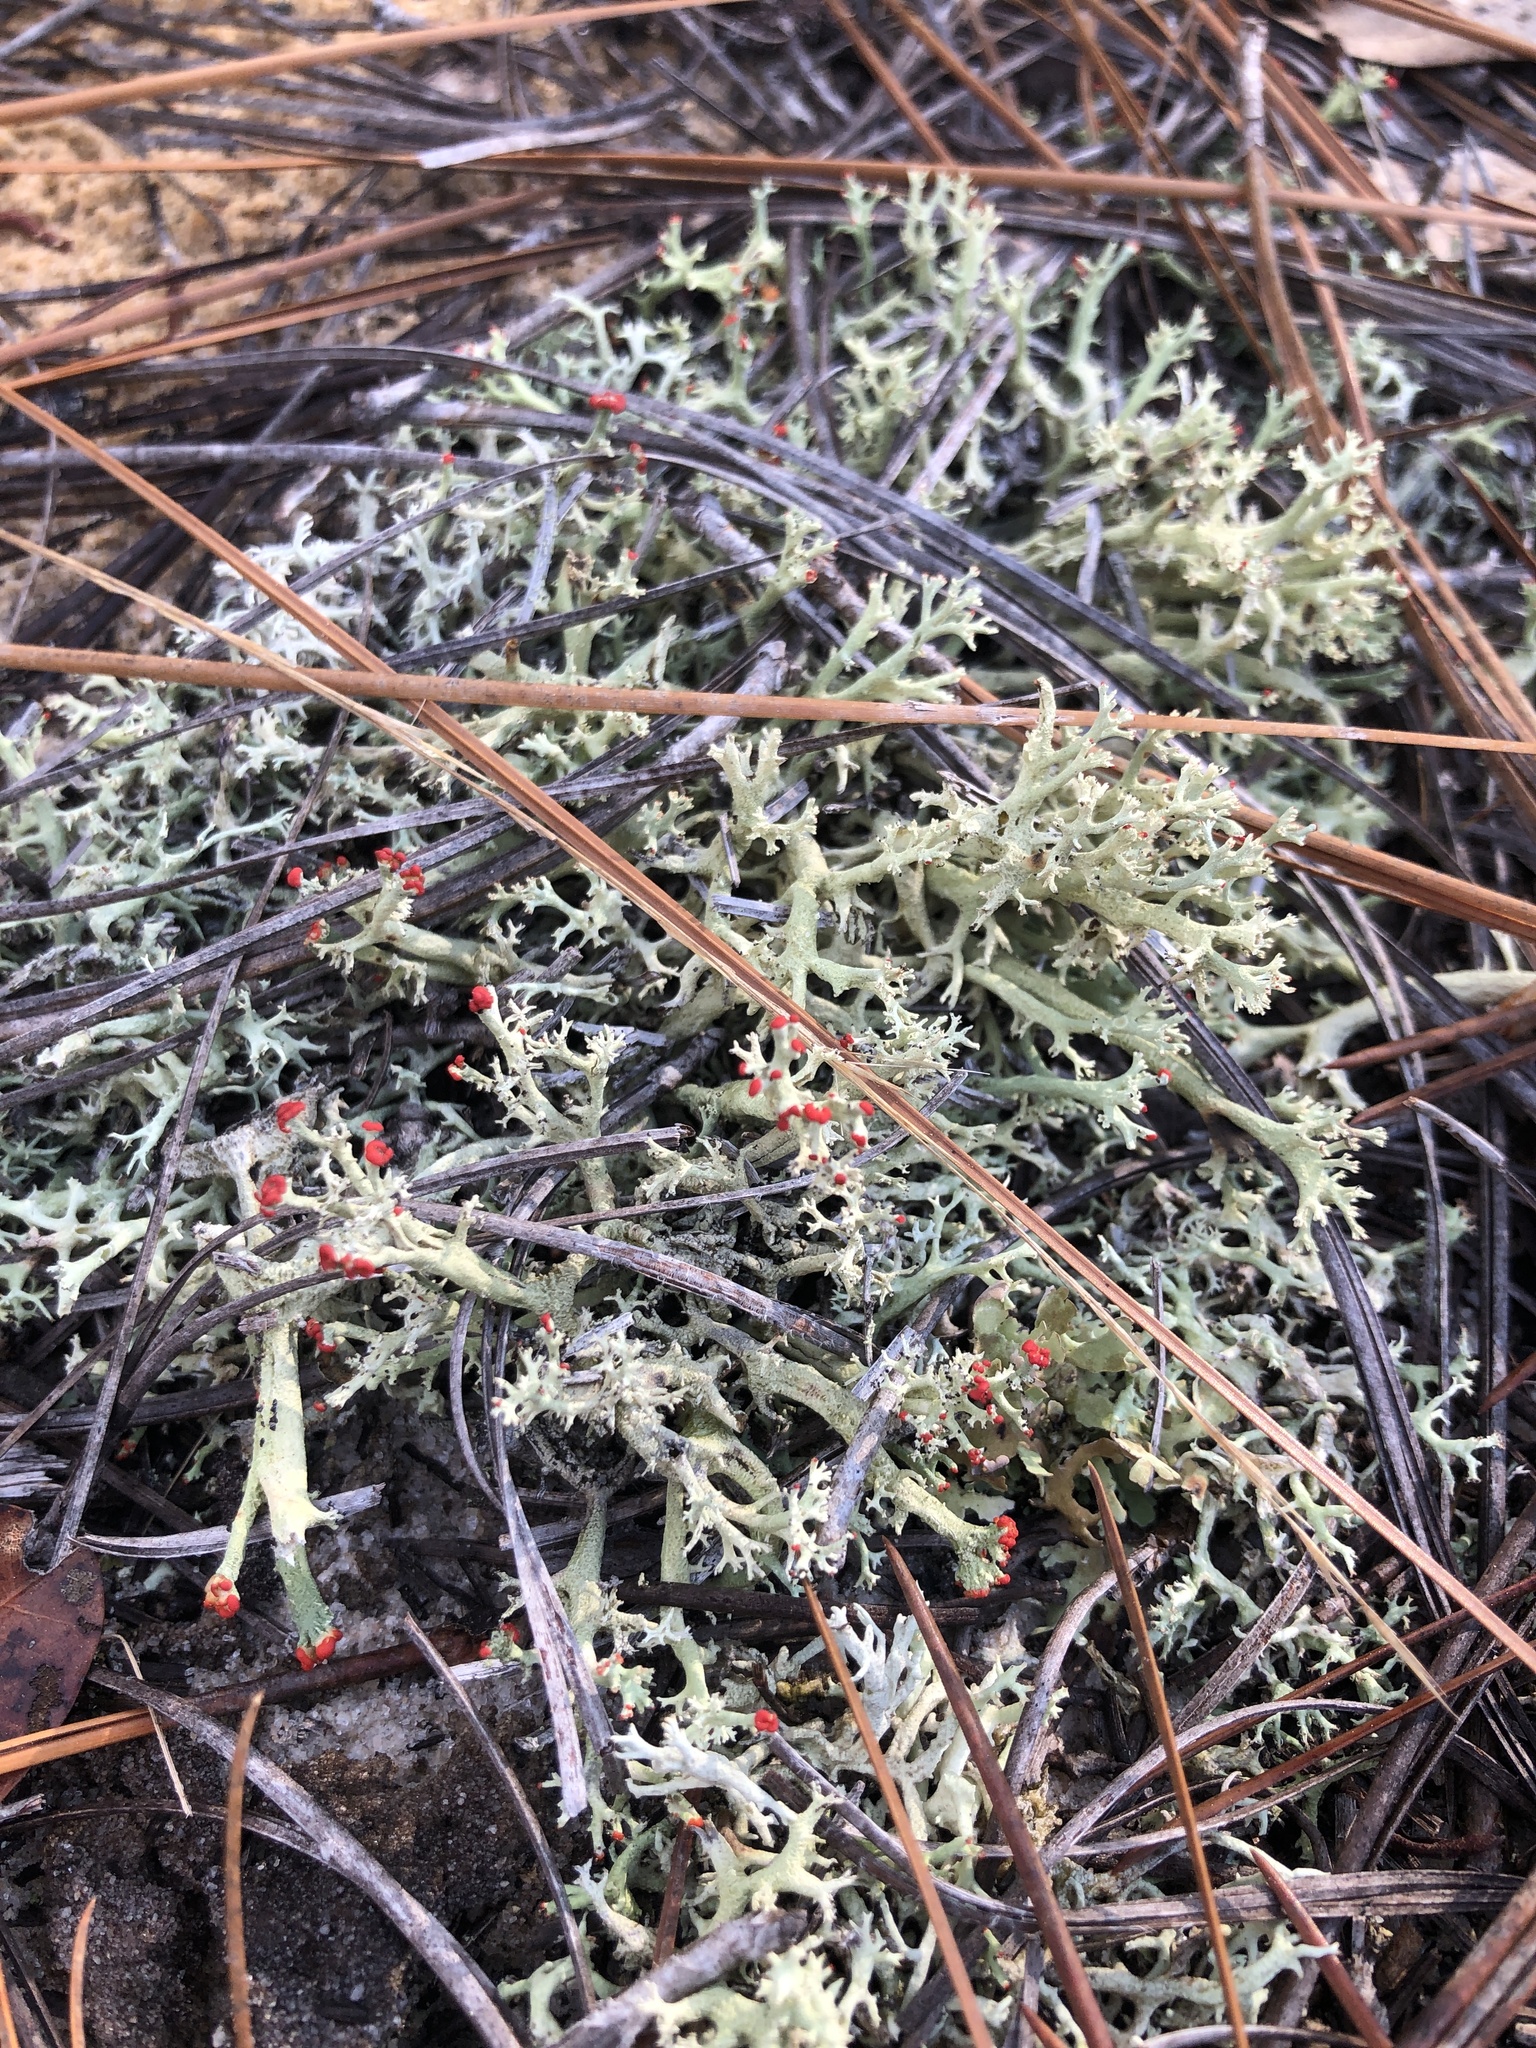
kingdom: Fungi
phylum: Ascomycota
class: Lecanoromycetes
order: Lecanorales
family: Cladoniaceae
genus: Cladonia
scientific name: Cladonia leporina
